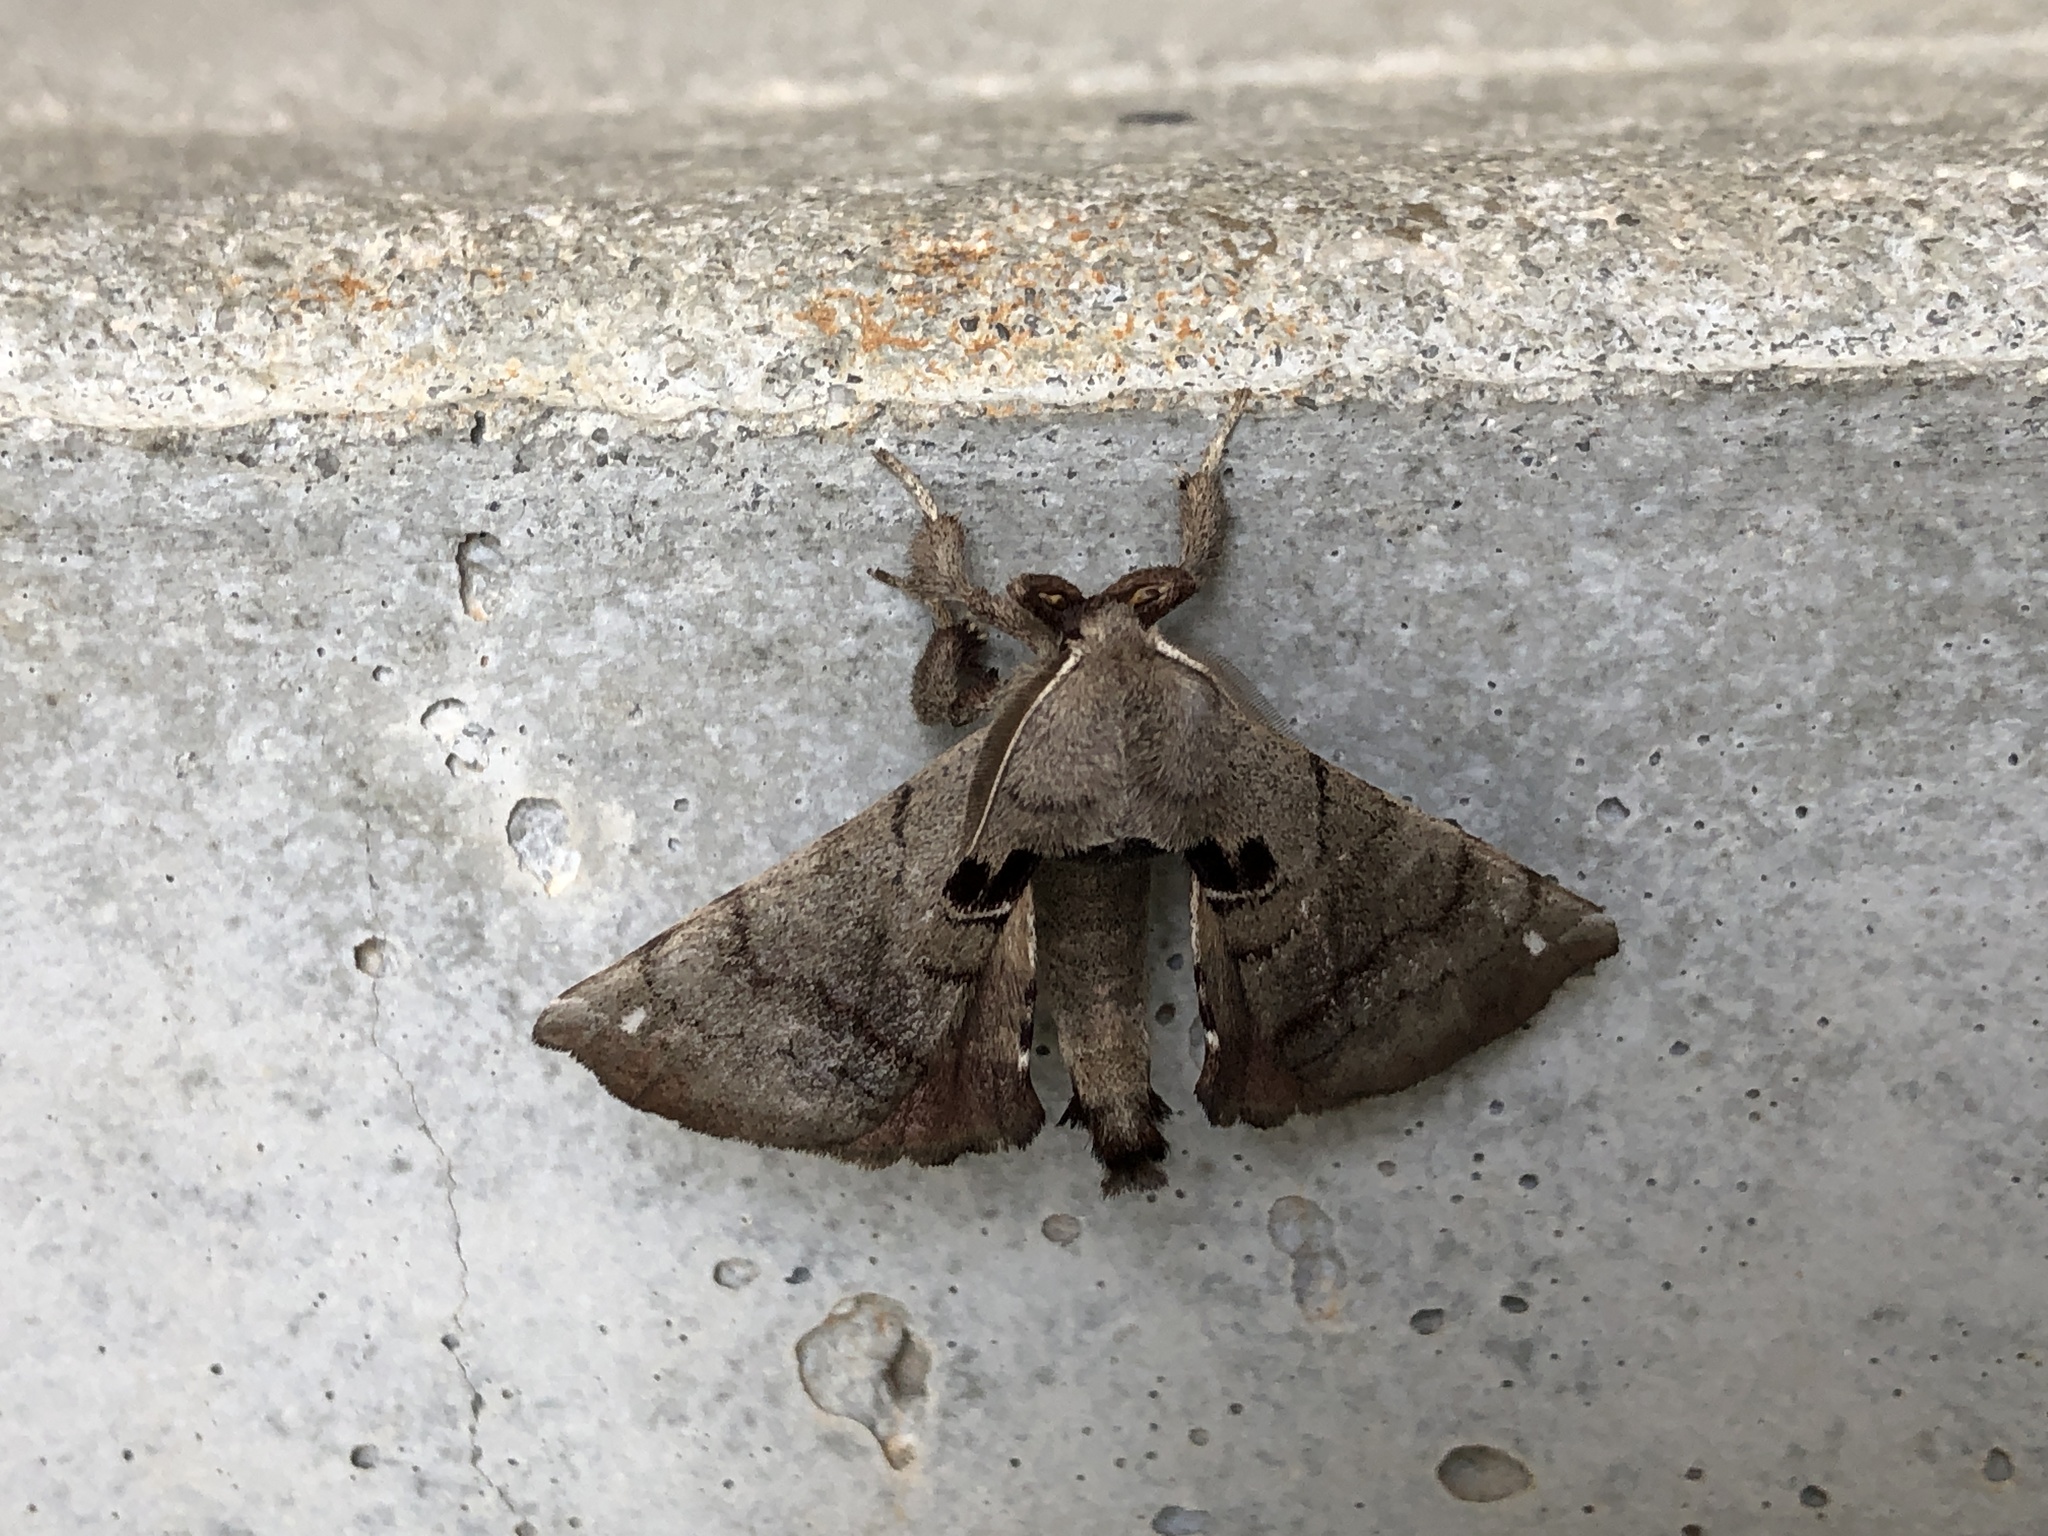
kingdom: Animalia
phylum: Arthropoda
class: Insecta
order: Lepidoptera
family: Apatelodidae
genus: Hygrochroa
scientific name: Hygrochroa Apatelodes torrefacta
